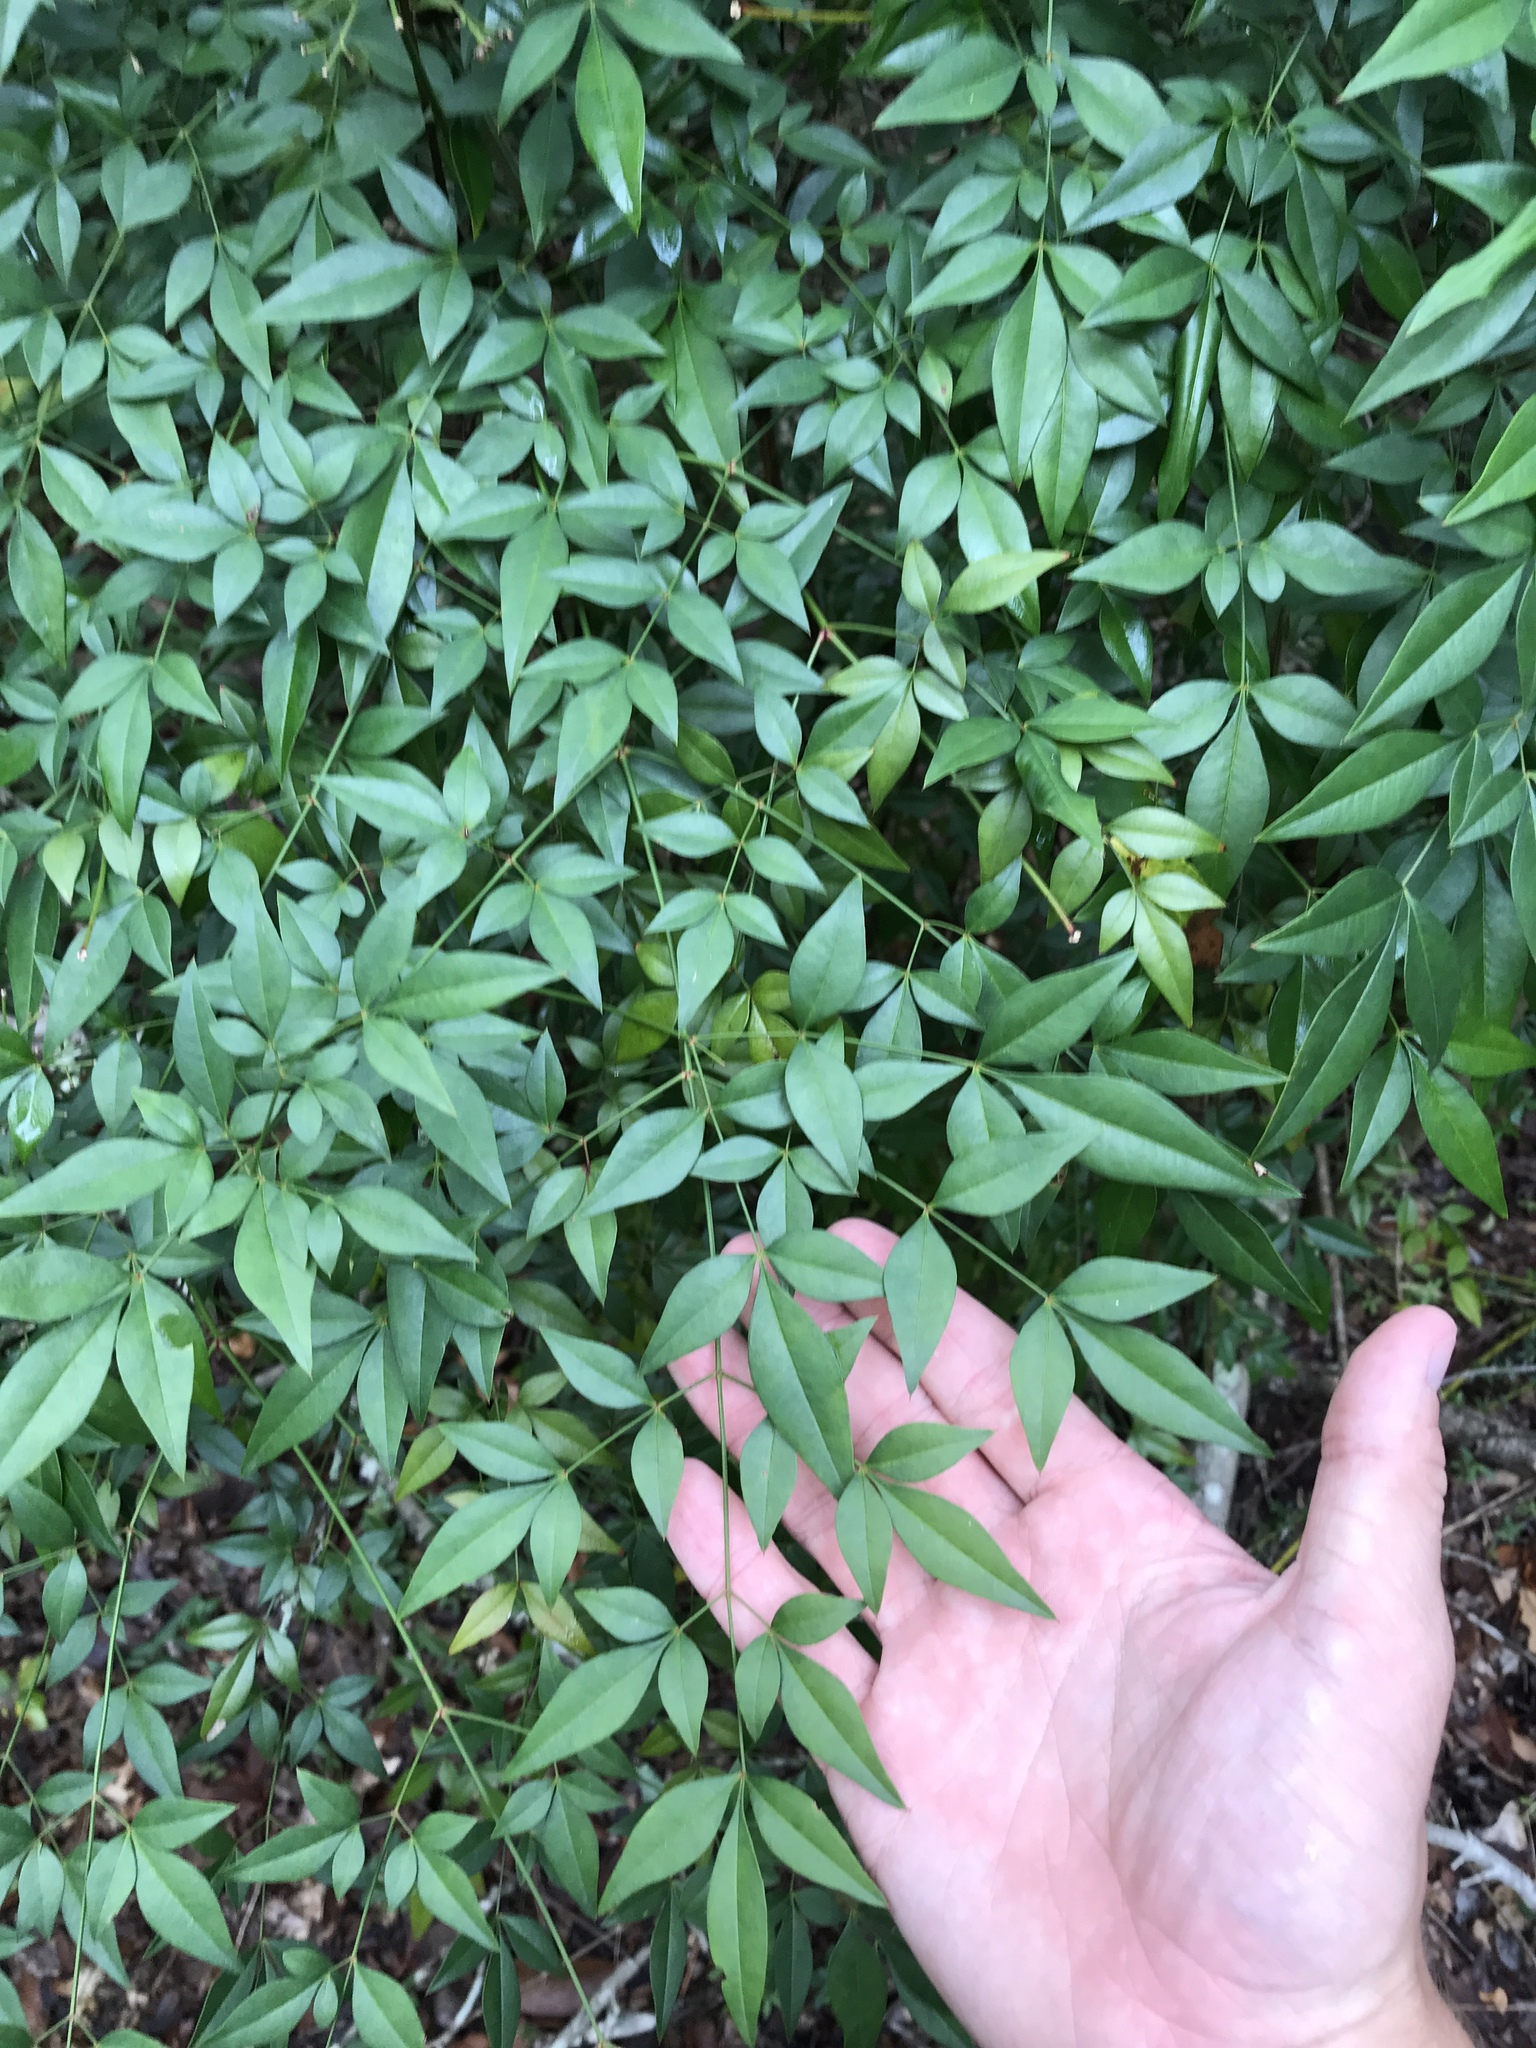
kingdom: Plantae
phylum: Tracheophyta
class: Magnoliopsida
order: Ranunculales
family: Berberidaceae
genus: Nandina
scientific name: Nandina domestica
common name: Sacred bamboo
